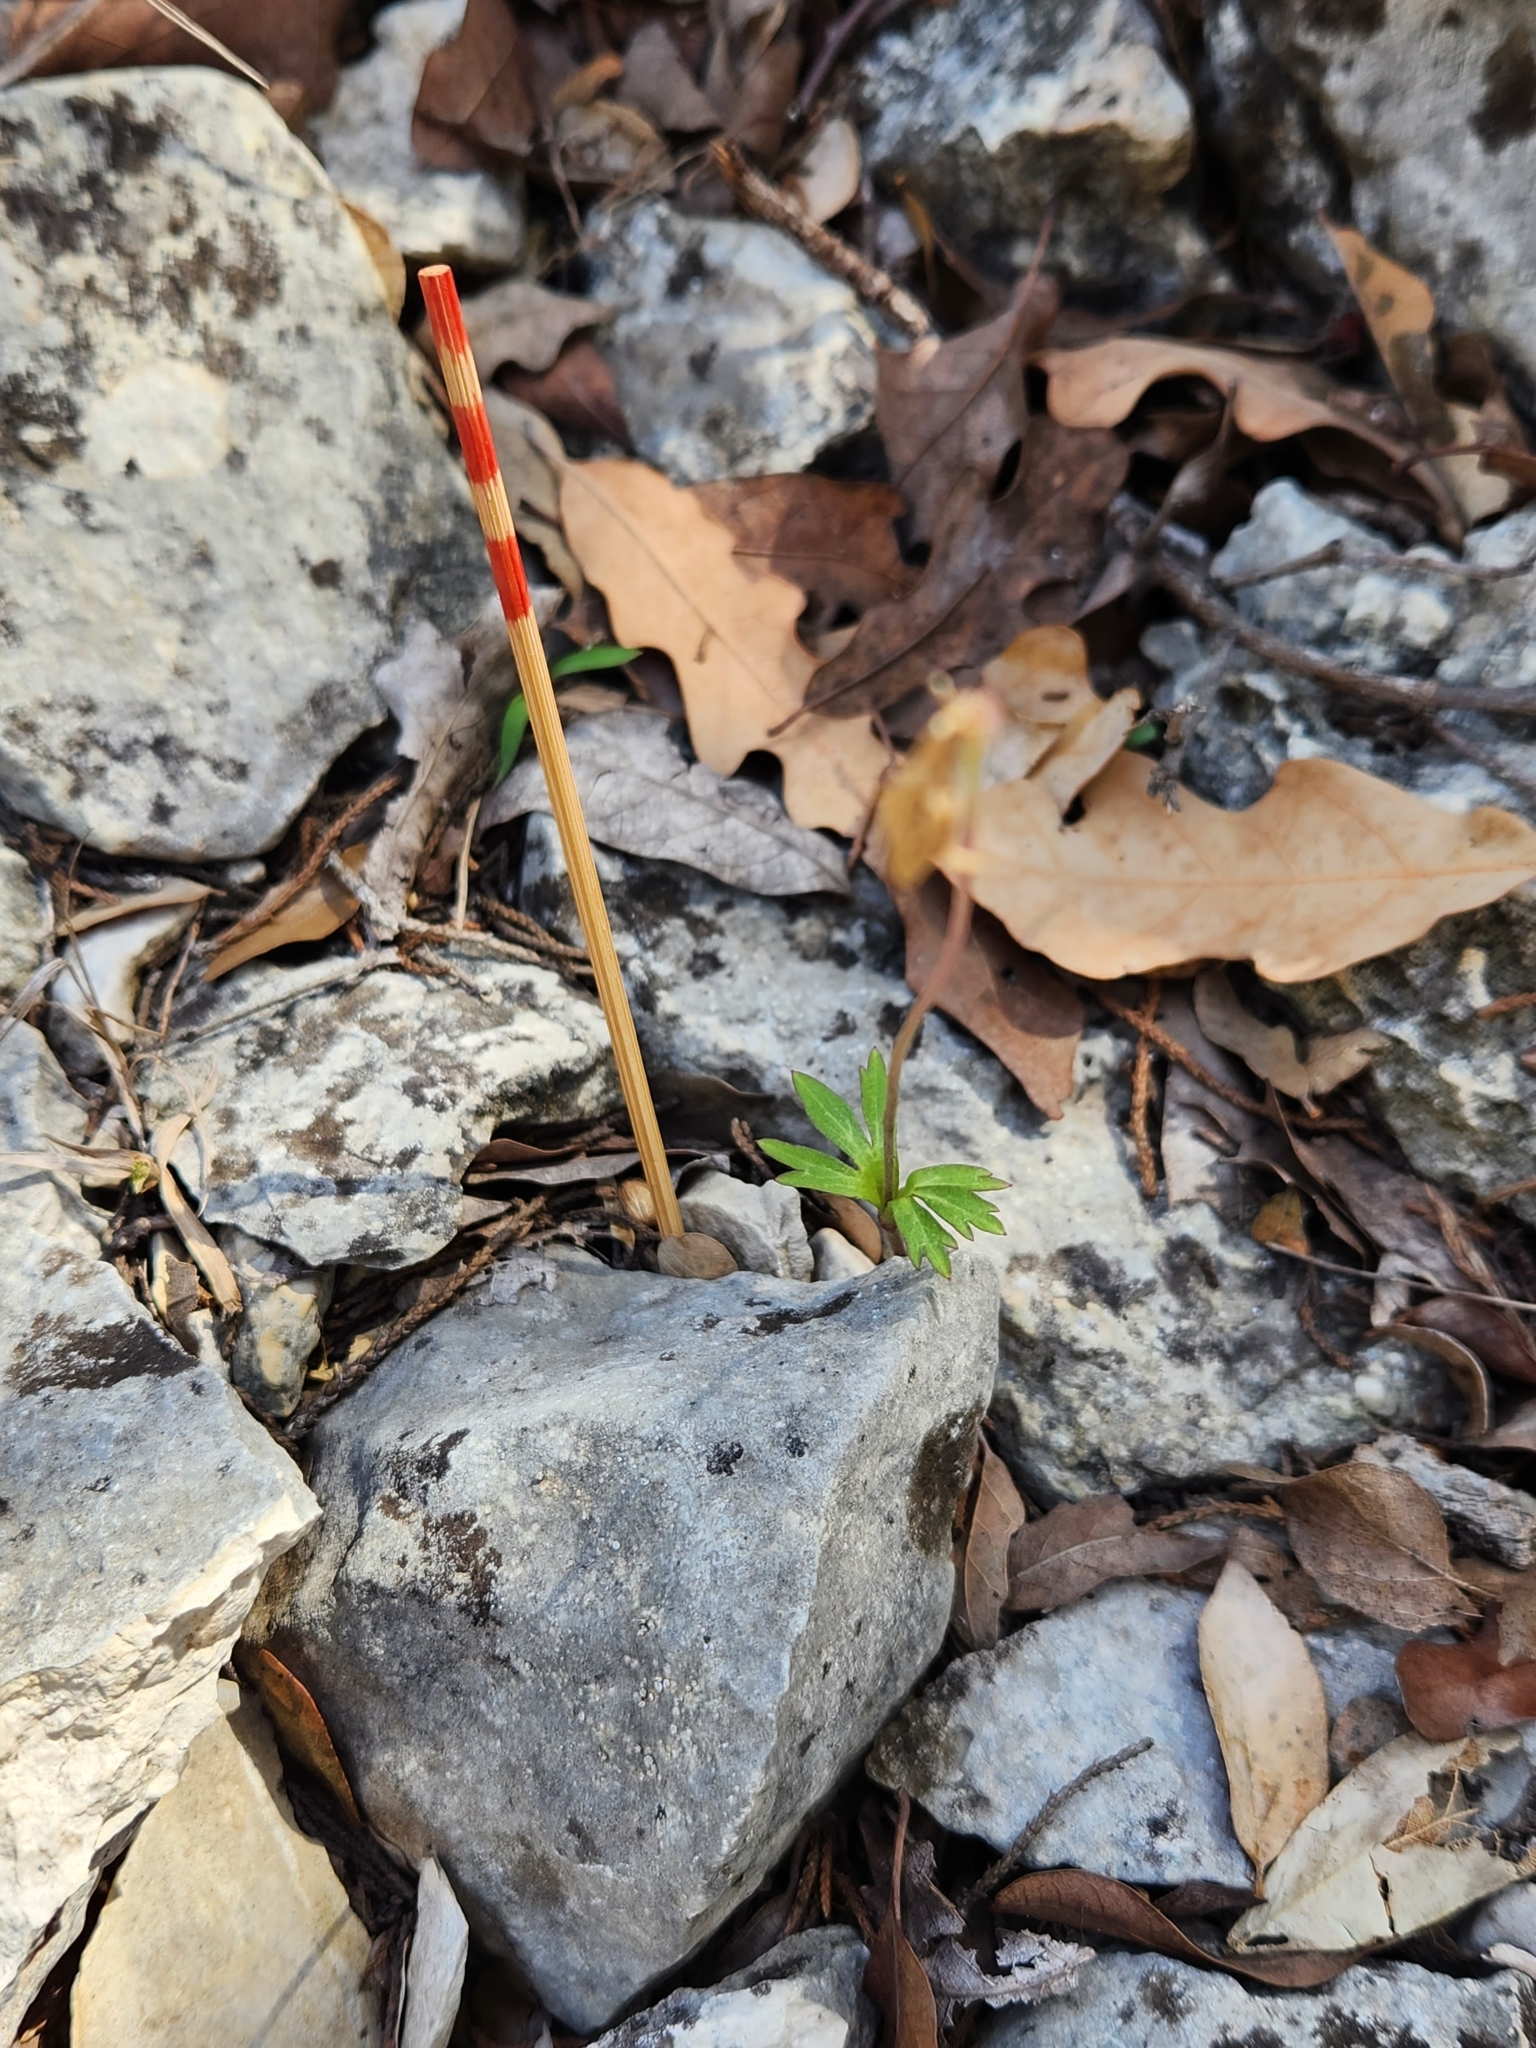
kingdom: Plantae
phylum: Tracheophyta
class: Magnoliopsida
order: Ranunculales
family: Ranunculaceae
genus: Anemone
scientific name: Anemone edwardsiana
